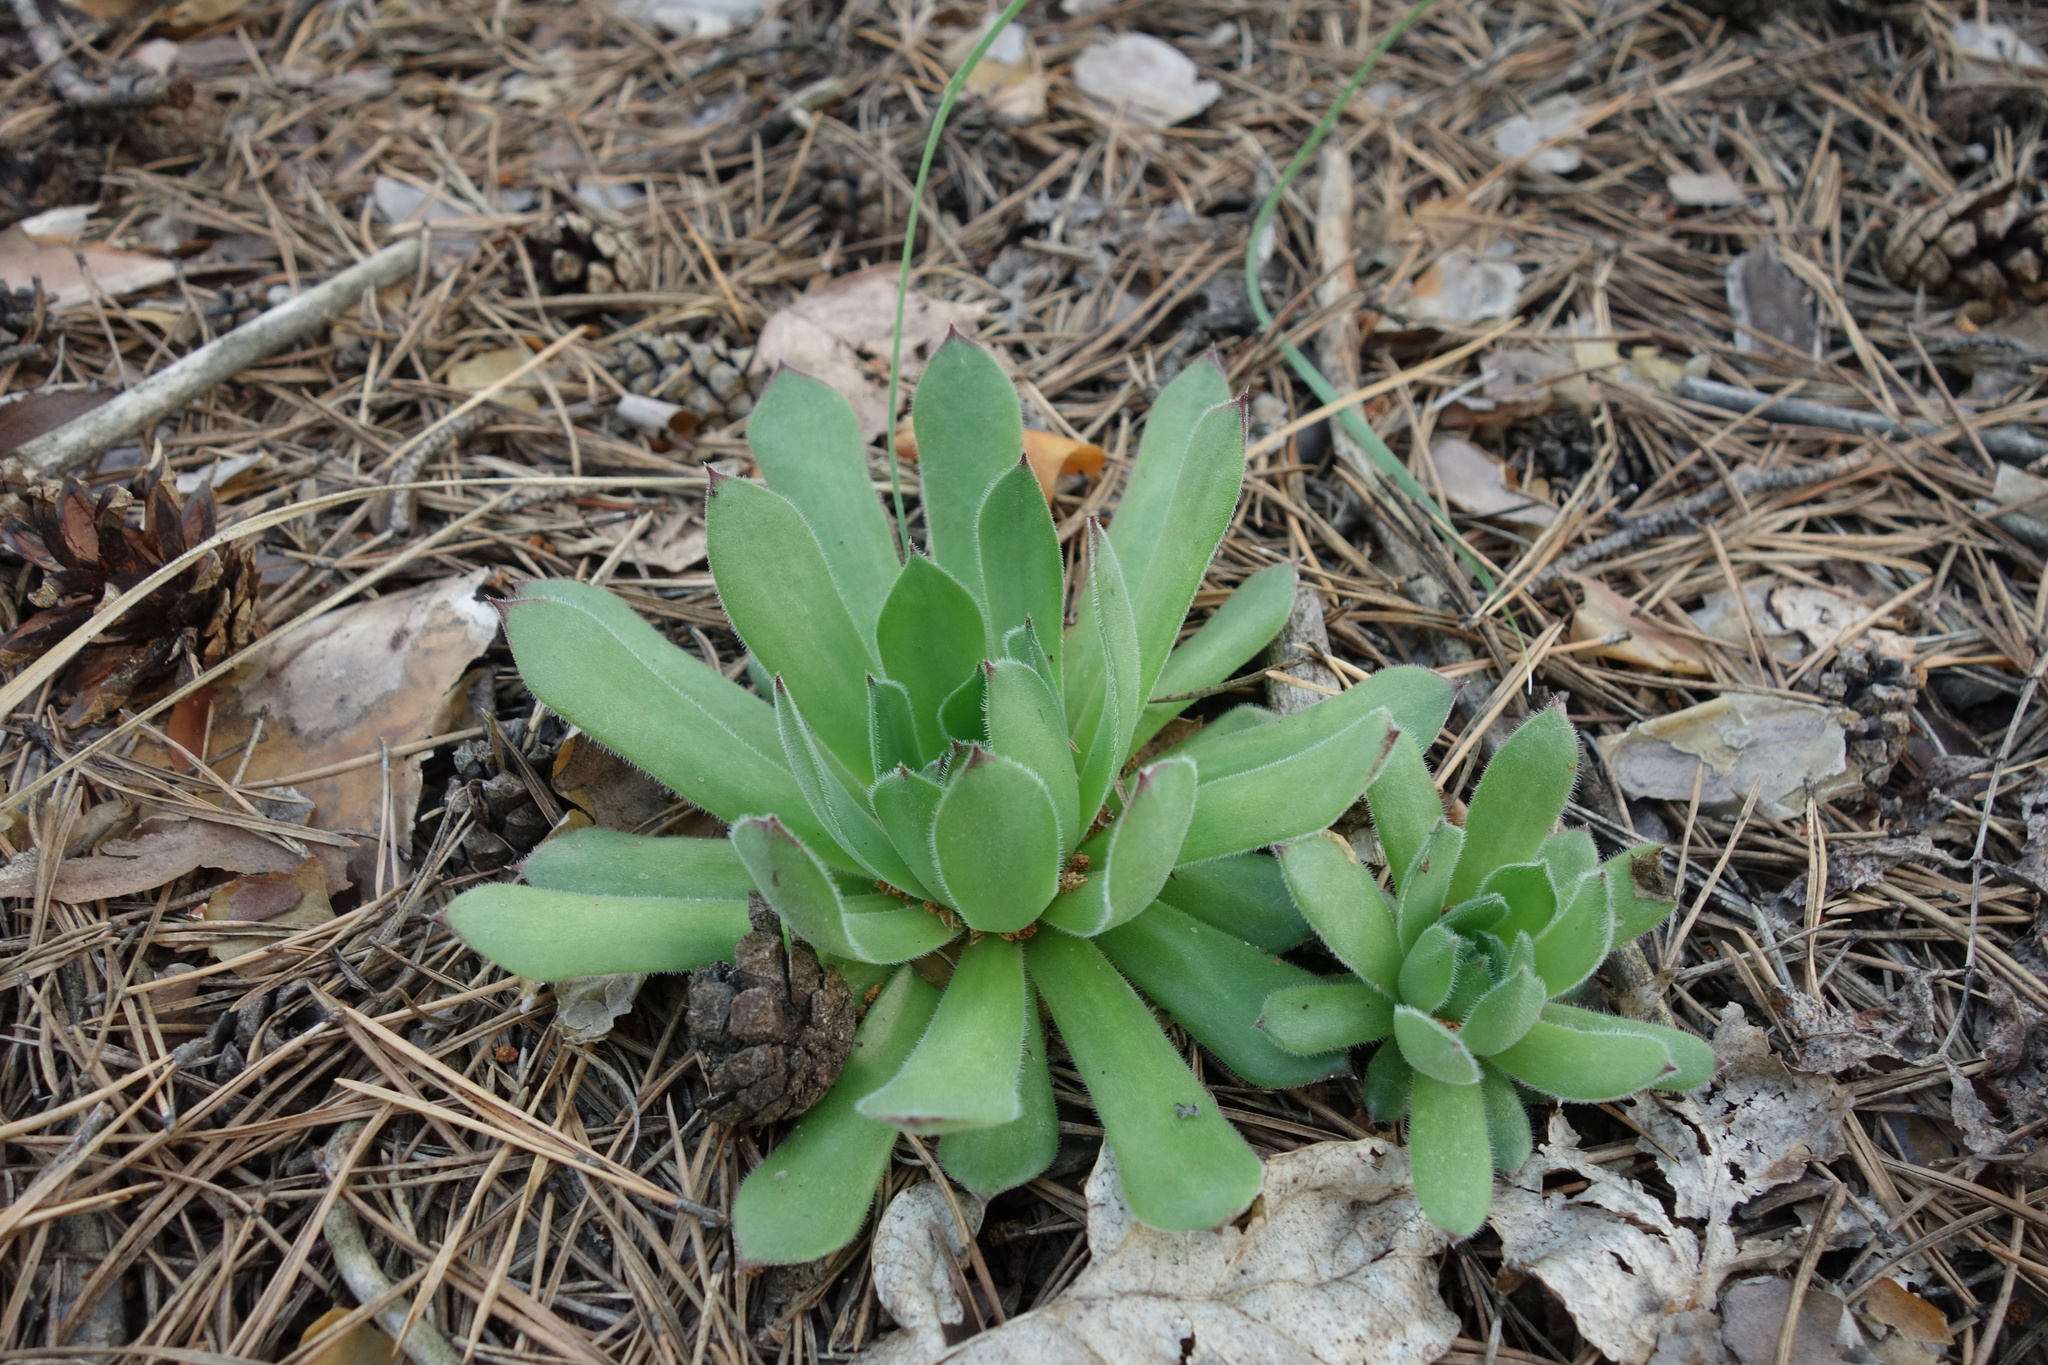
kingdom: Plantae
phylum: Tracheophyta
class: Magnoliopsida
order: Saxifragales
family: Crassulaceae
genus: Sempervivum
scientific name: Sempervivum ruthenicum
